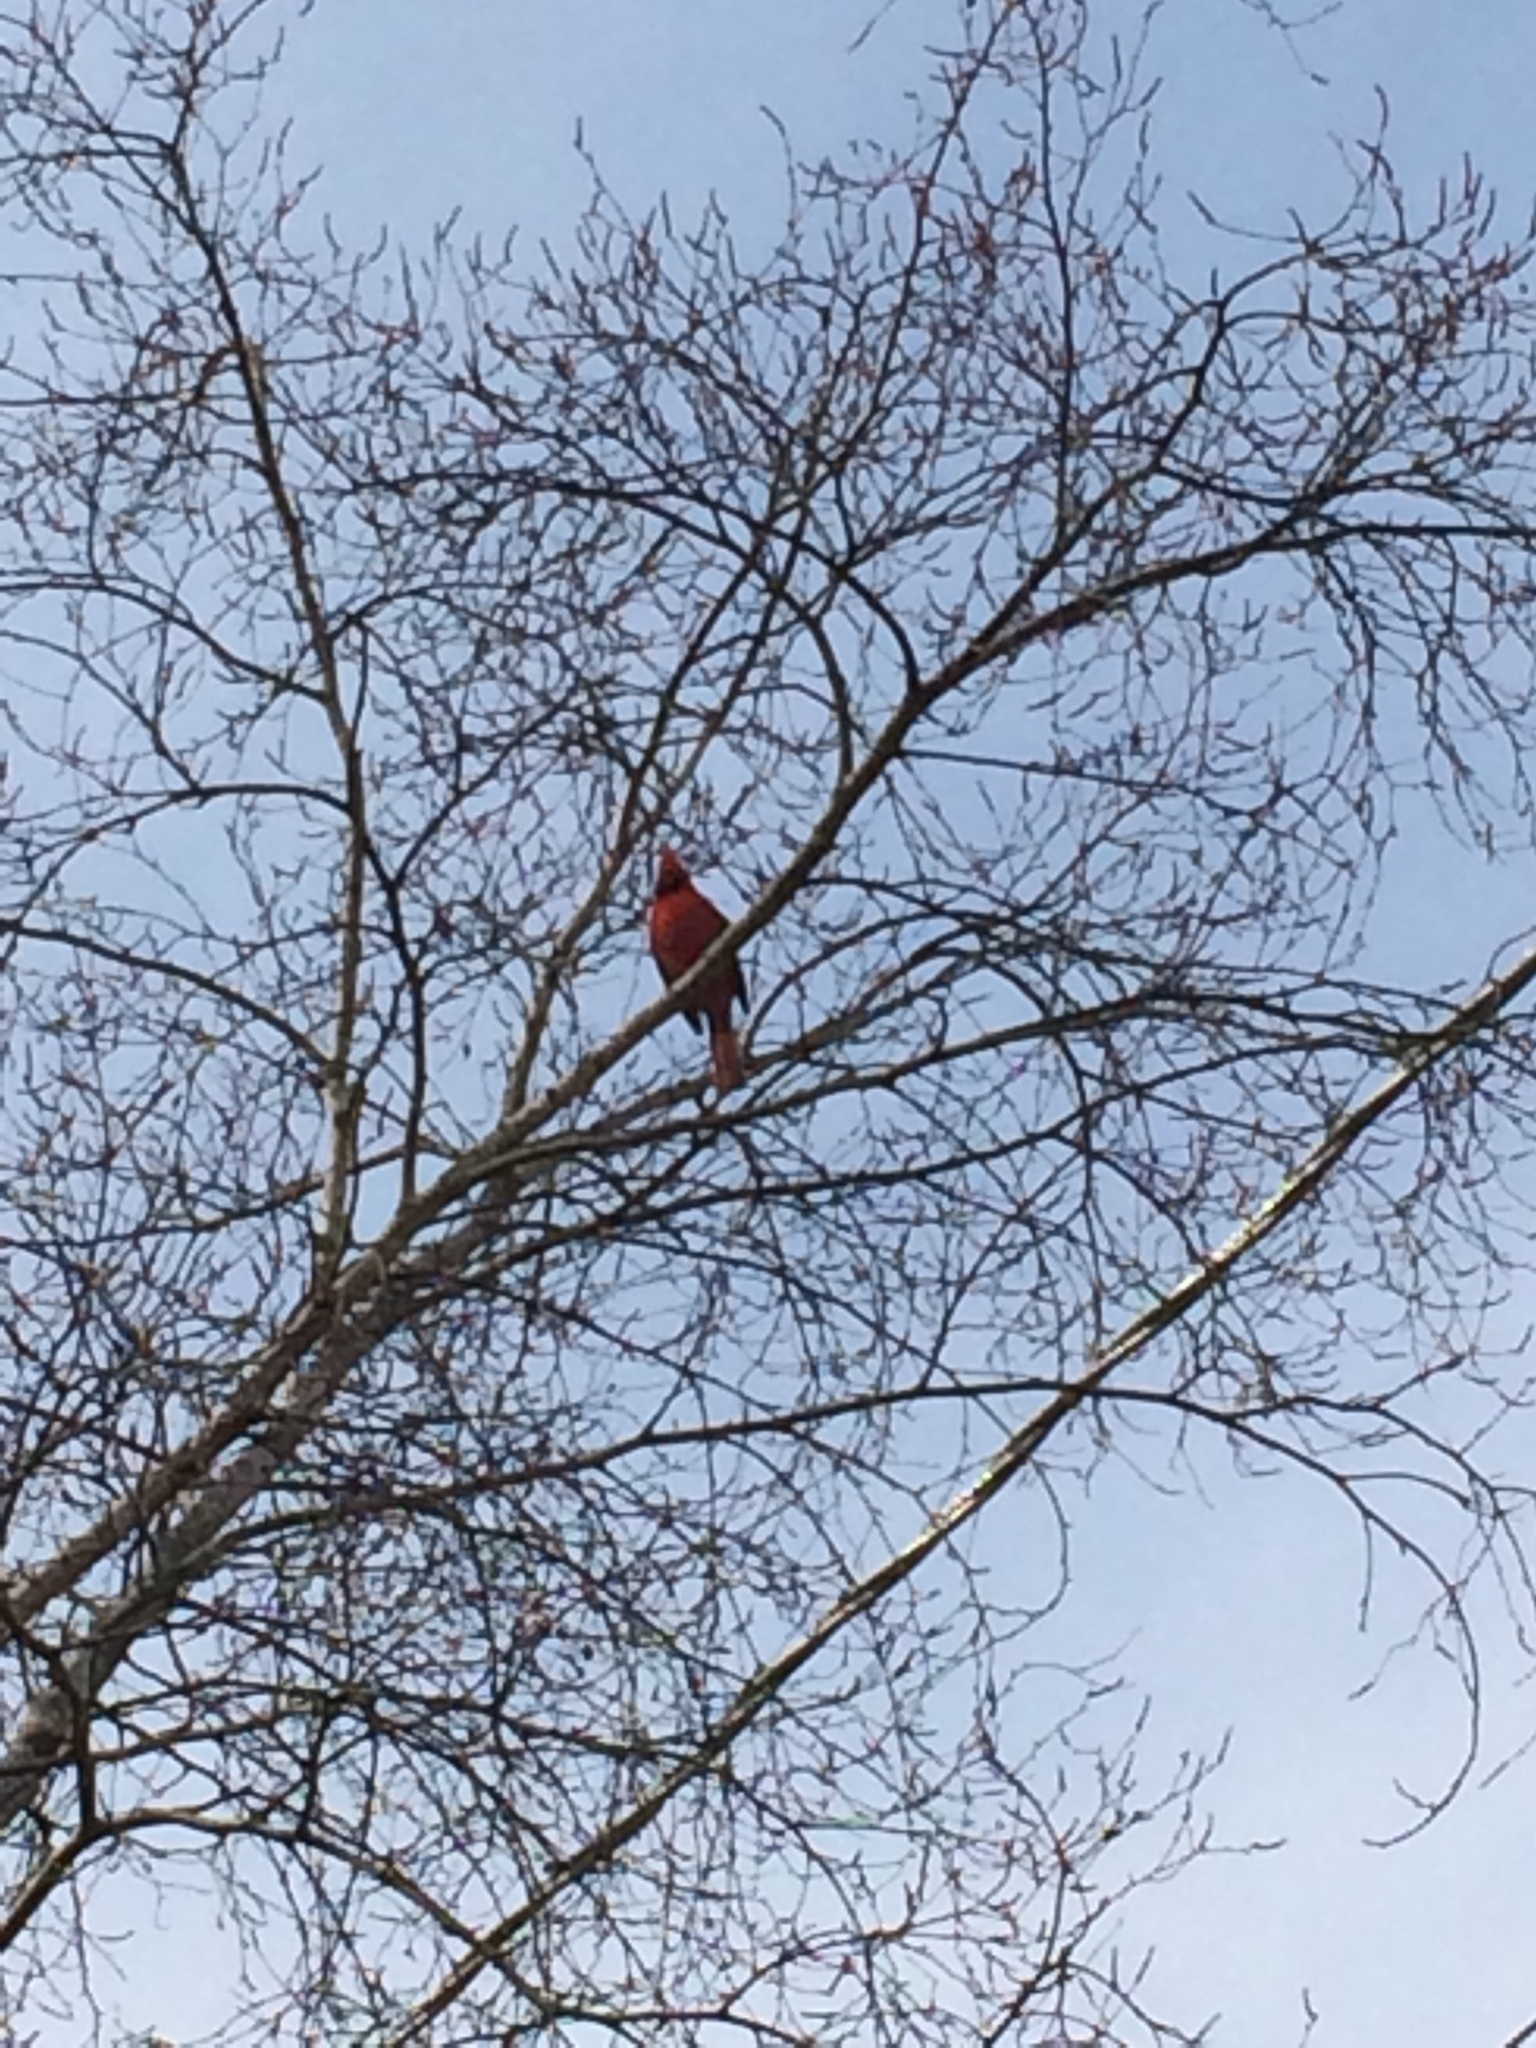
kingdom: Animalia
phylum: Chordata
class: Aves
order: Passeriformes
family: Cardinalidae
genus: Cardinalis
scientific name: Cardinalis cardinalis
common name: Northern cardinal
